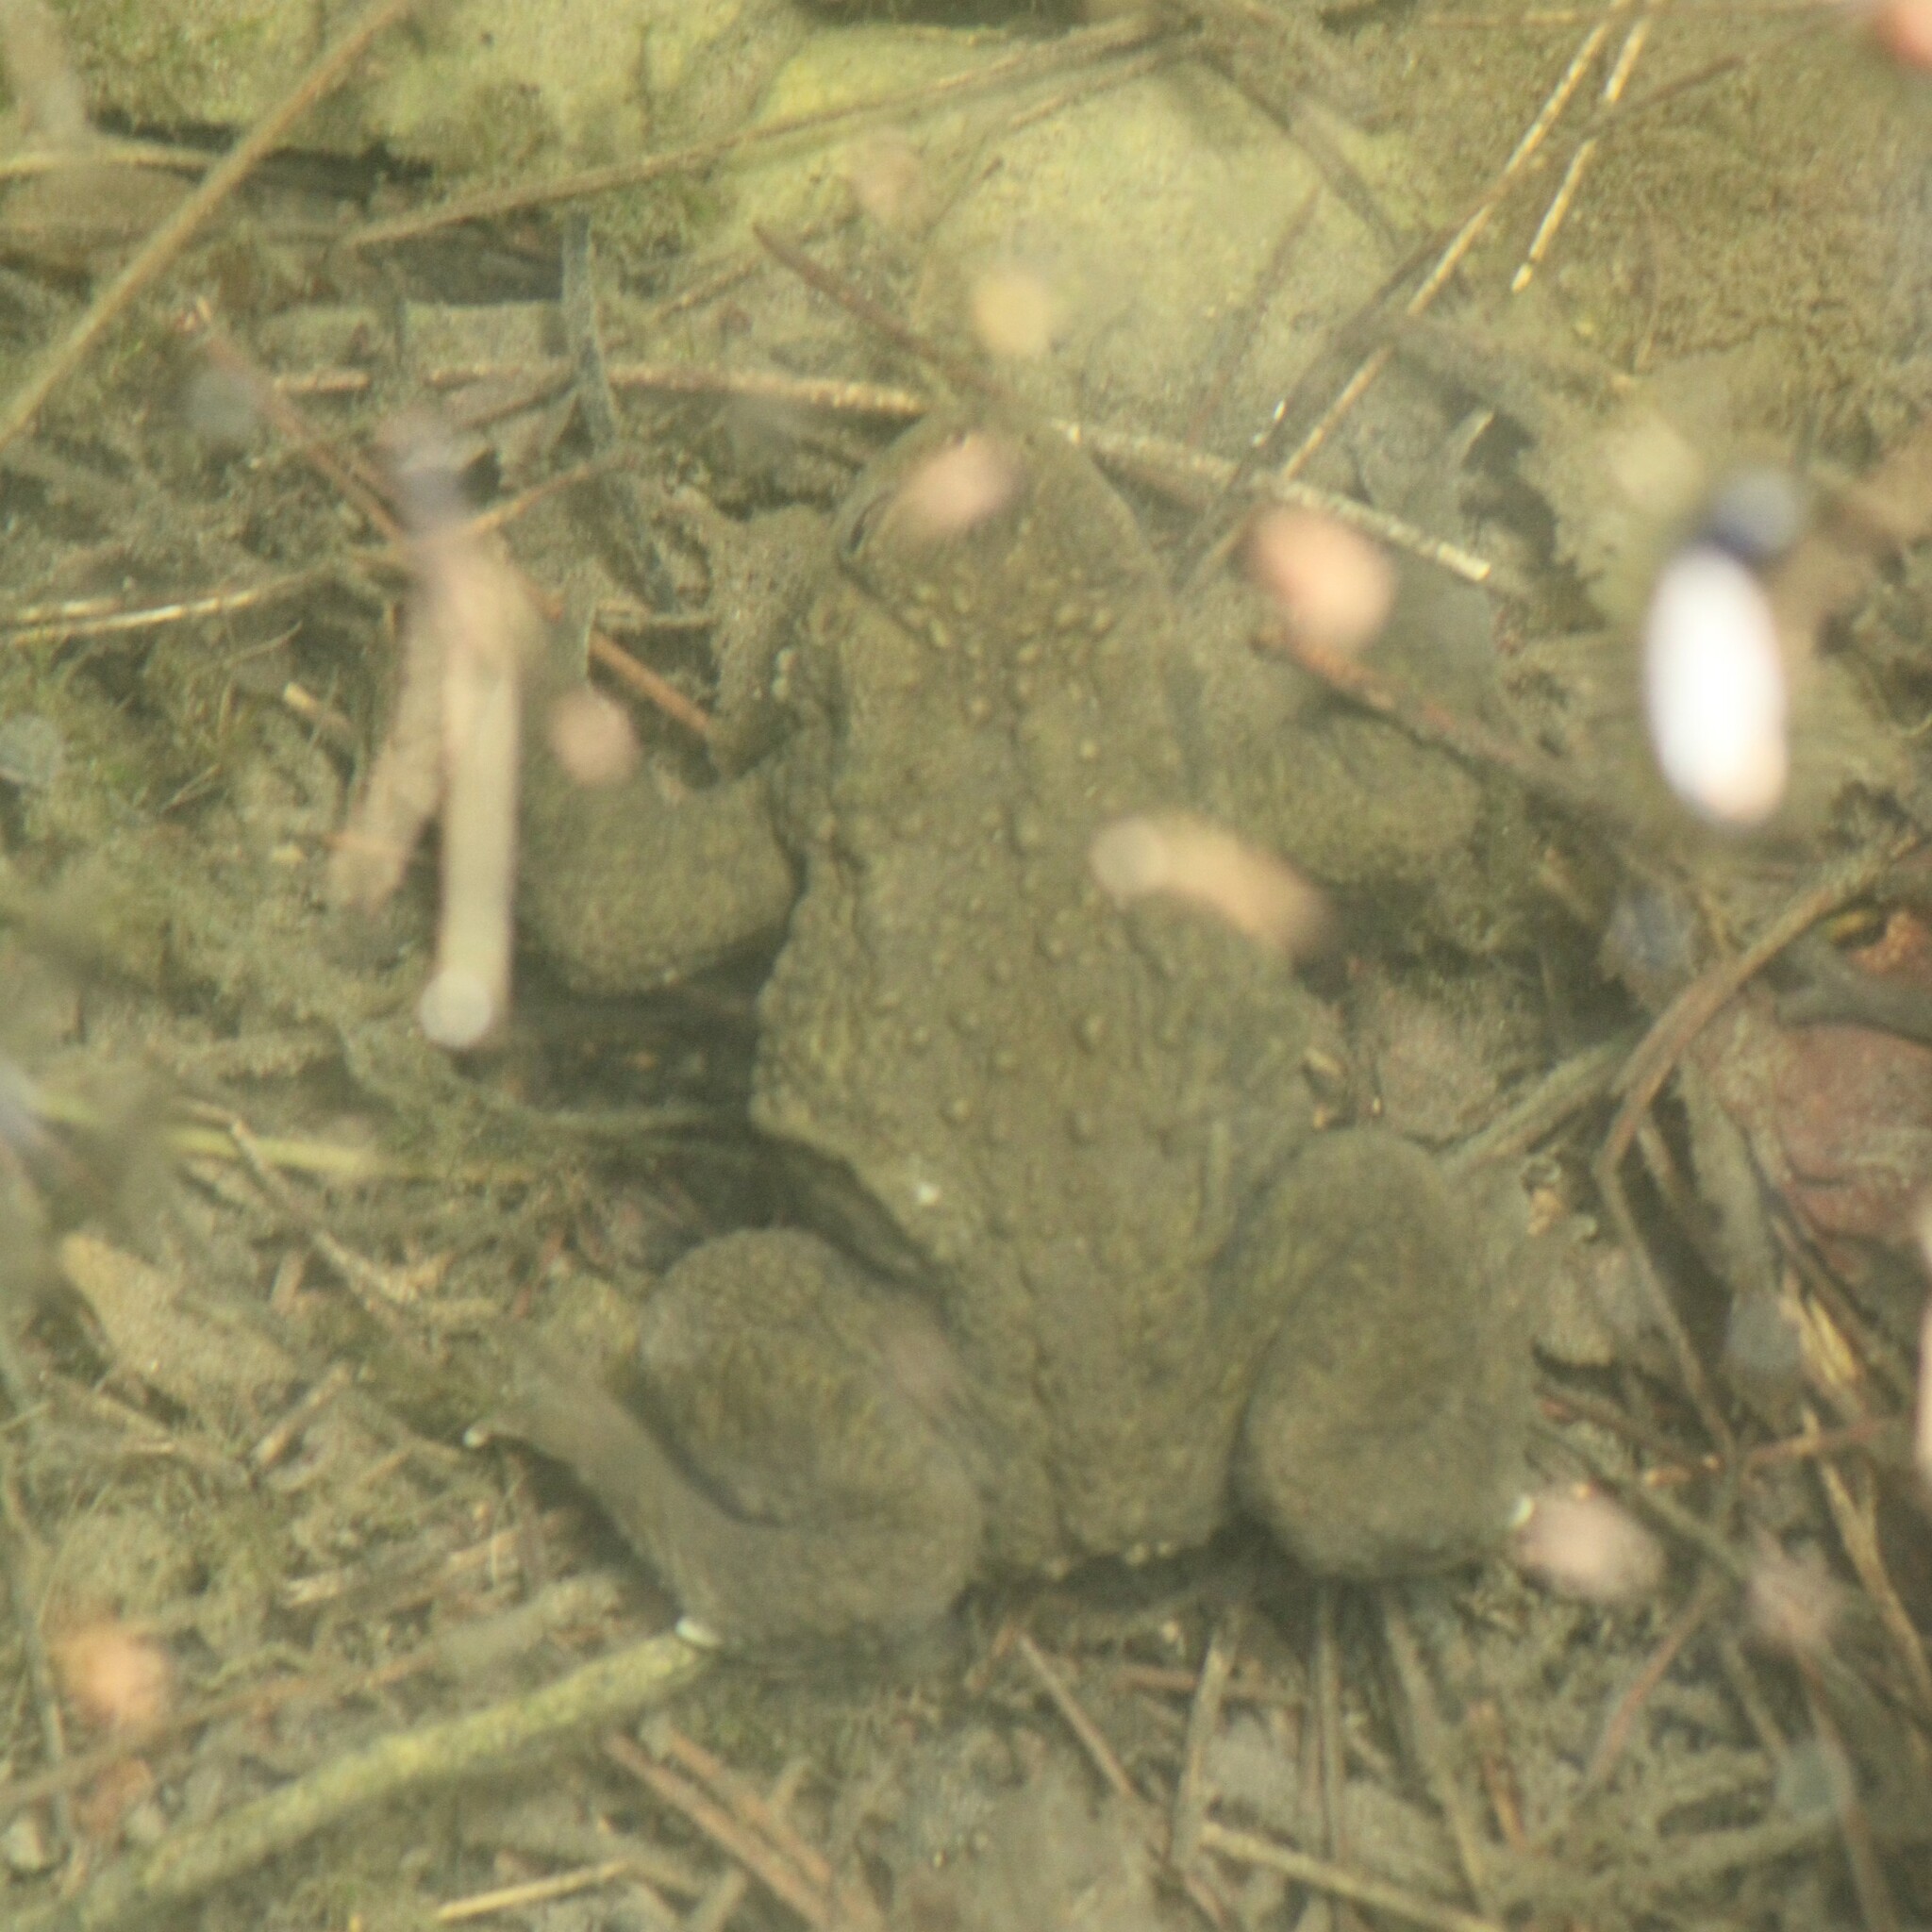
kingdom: Animalia
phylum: Chordata
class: Amphibia
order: Anura
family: Bufonidae
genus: Bufo
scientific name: Bufo bufo
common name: Common toad
